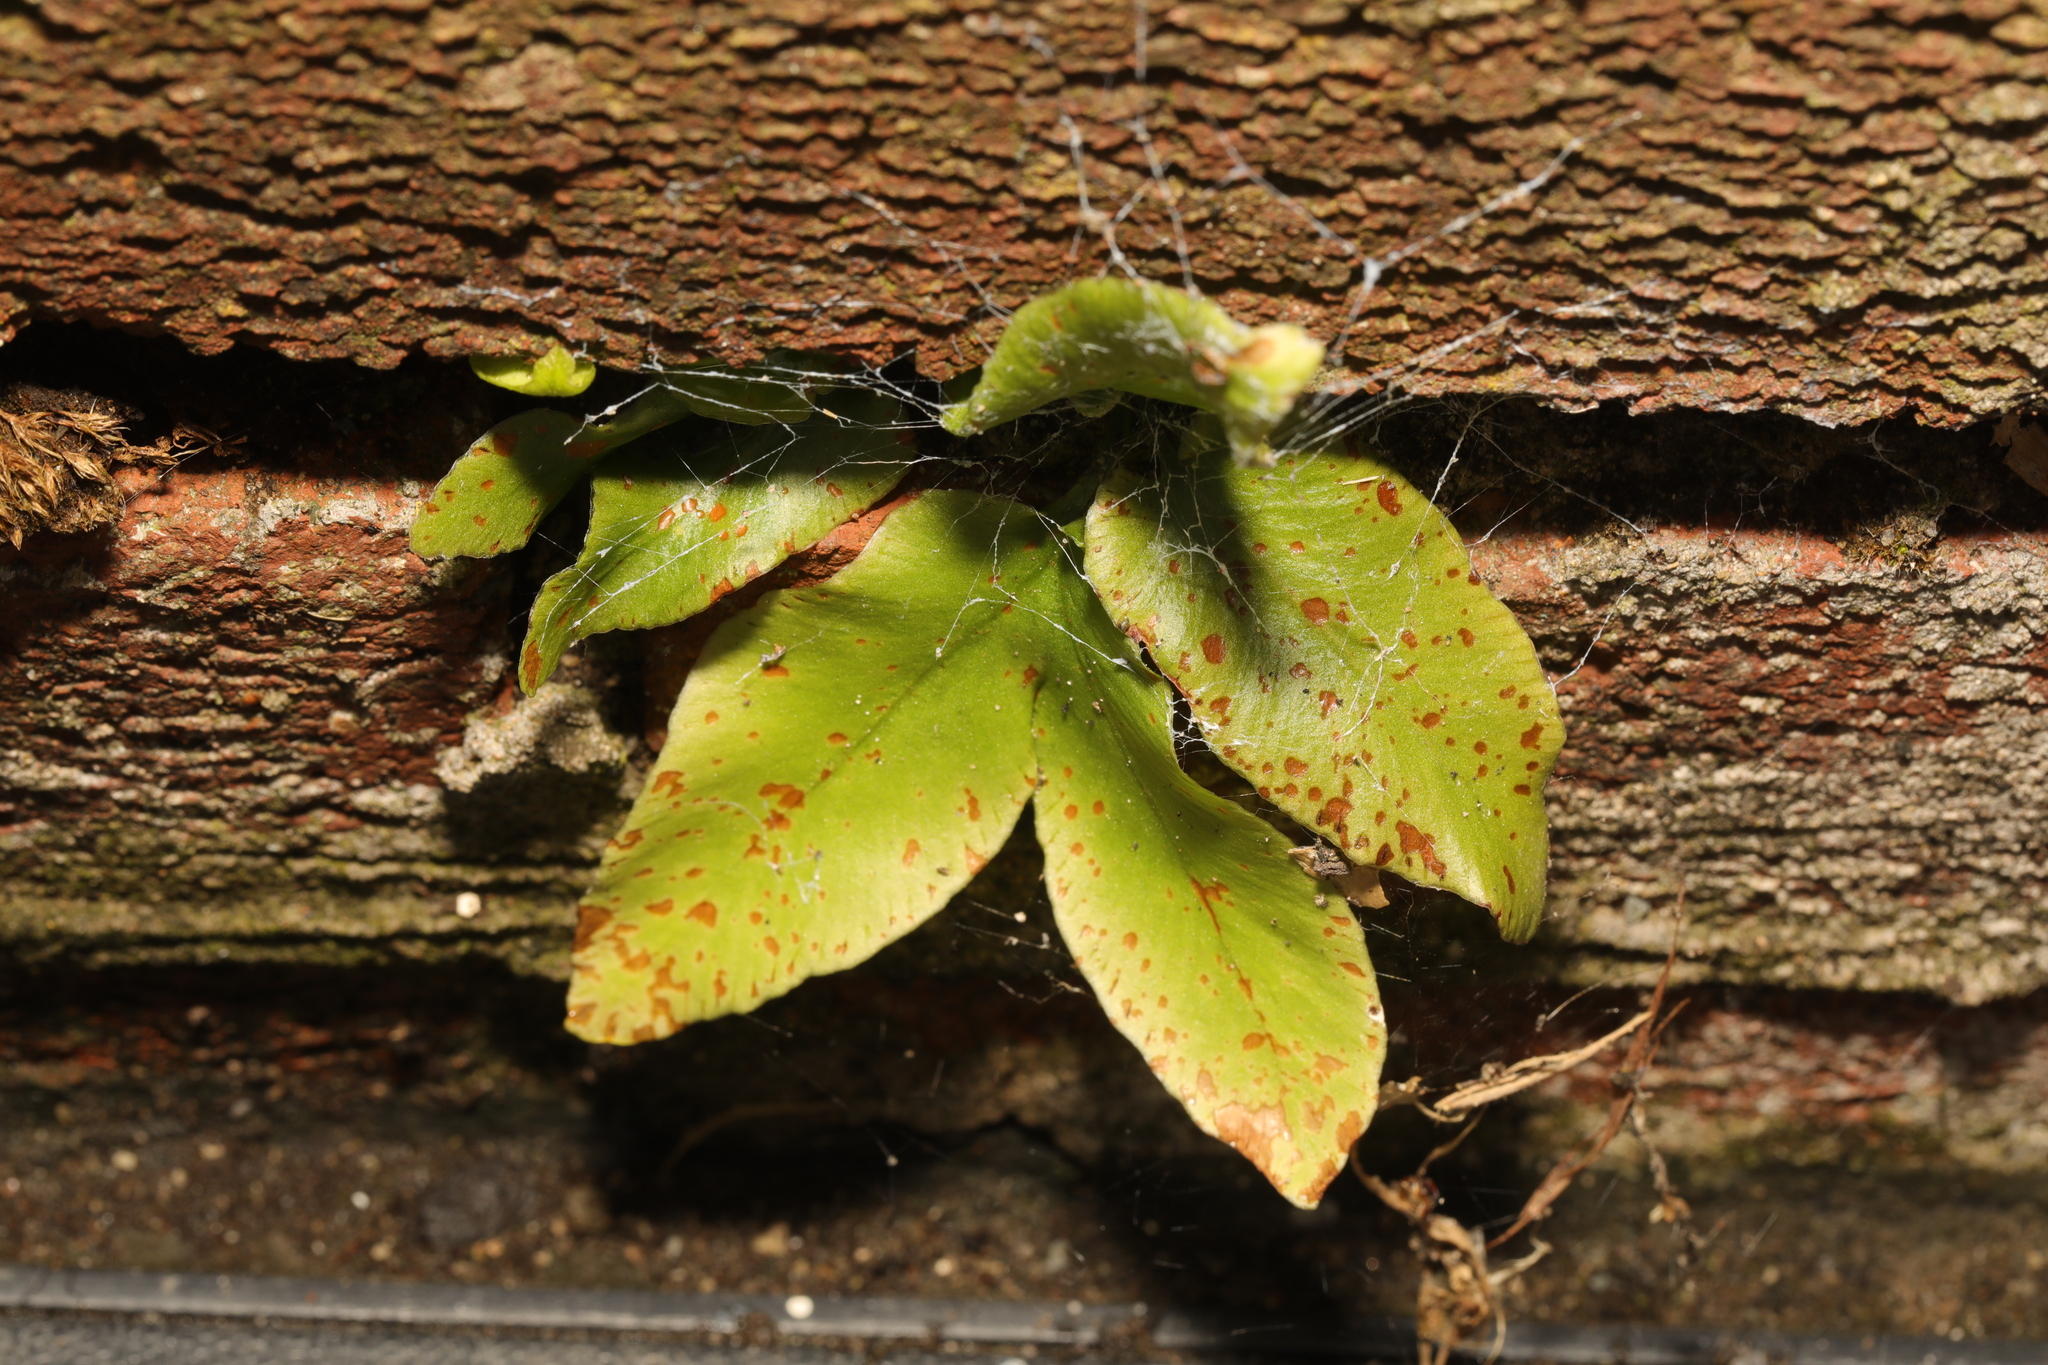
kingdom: Plantae
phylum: Tracheophyta
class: Polypodiopsida
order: Polypodiales
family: Aspleniaceae
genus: Asplenium
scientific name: Asplenium scolopendrium
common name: Hart's-tongue fern
